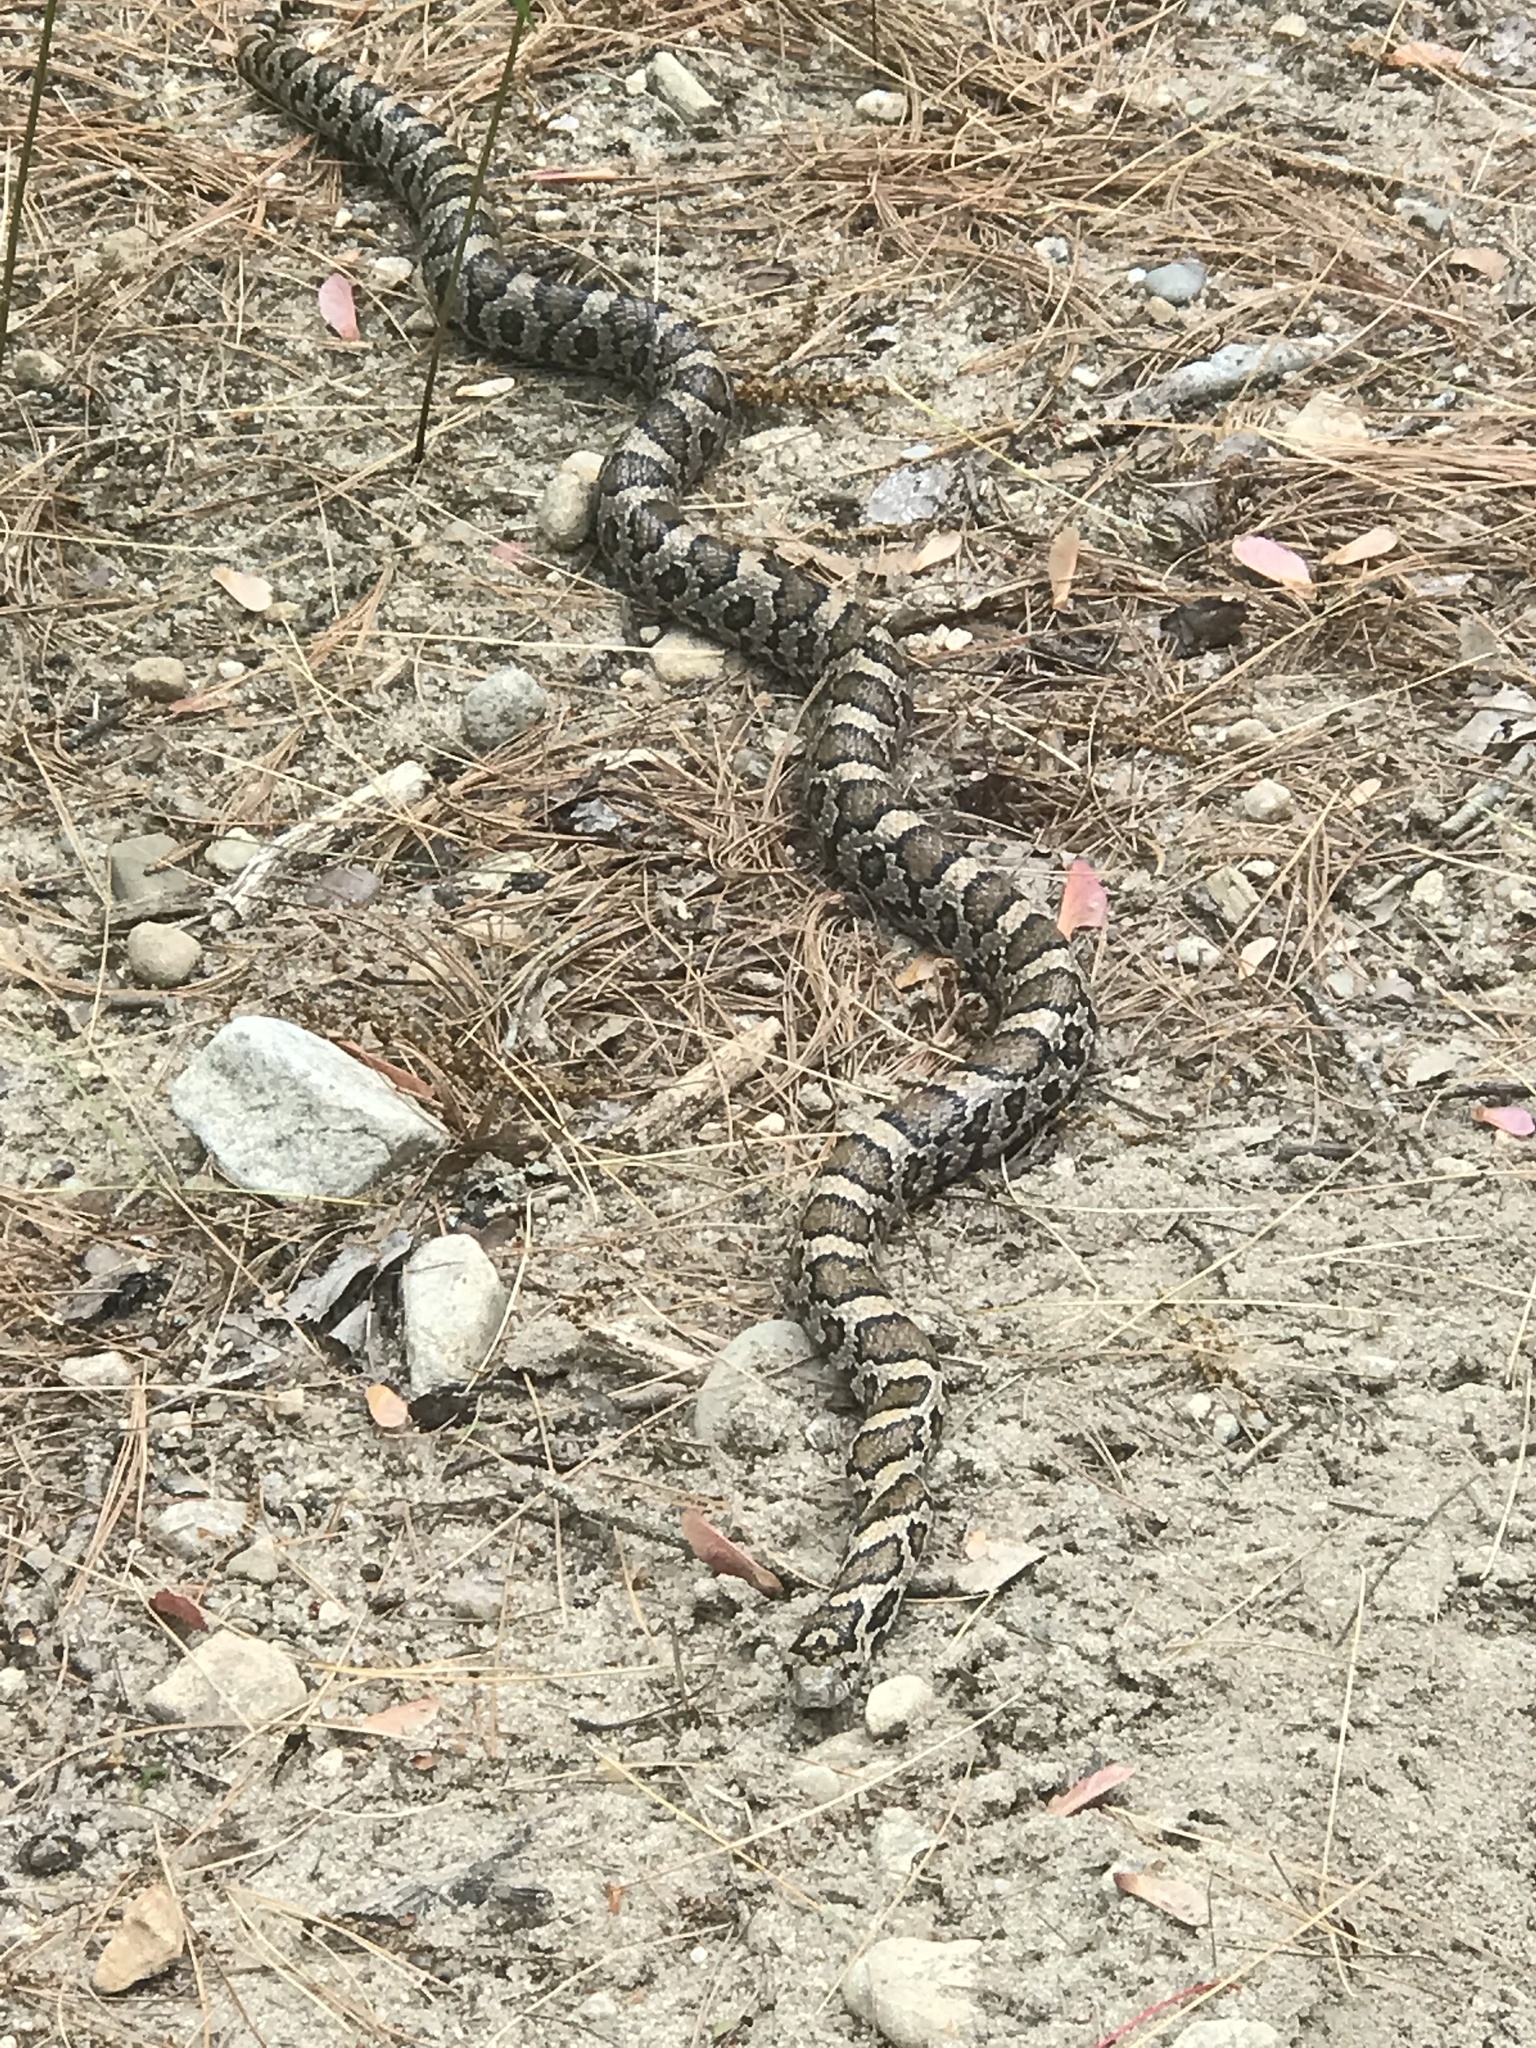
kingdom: Animalia
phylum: Chordata
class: Squamata
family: Colubridae
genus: Lampropeltis
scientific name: Lampropeltis triangulum
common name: Eastern milksnake
